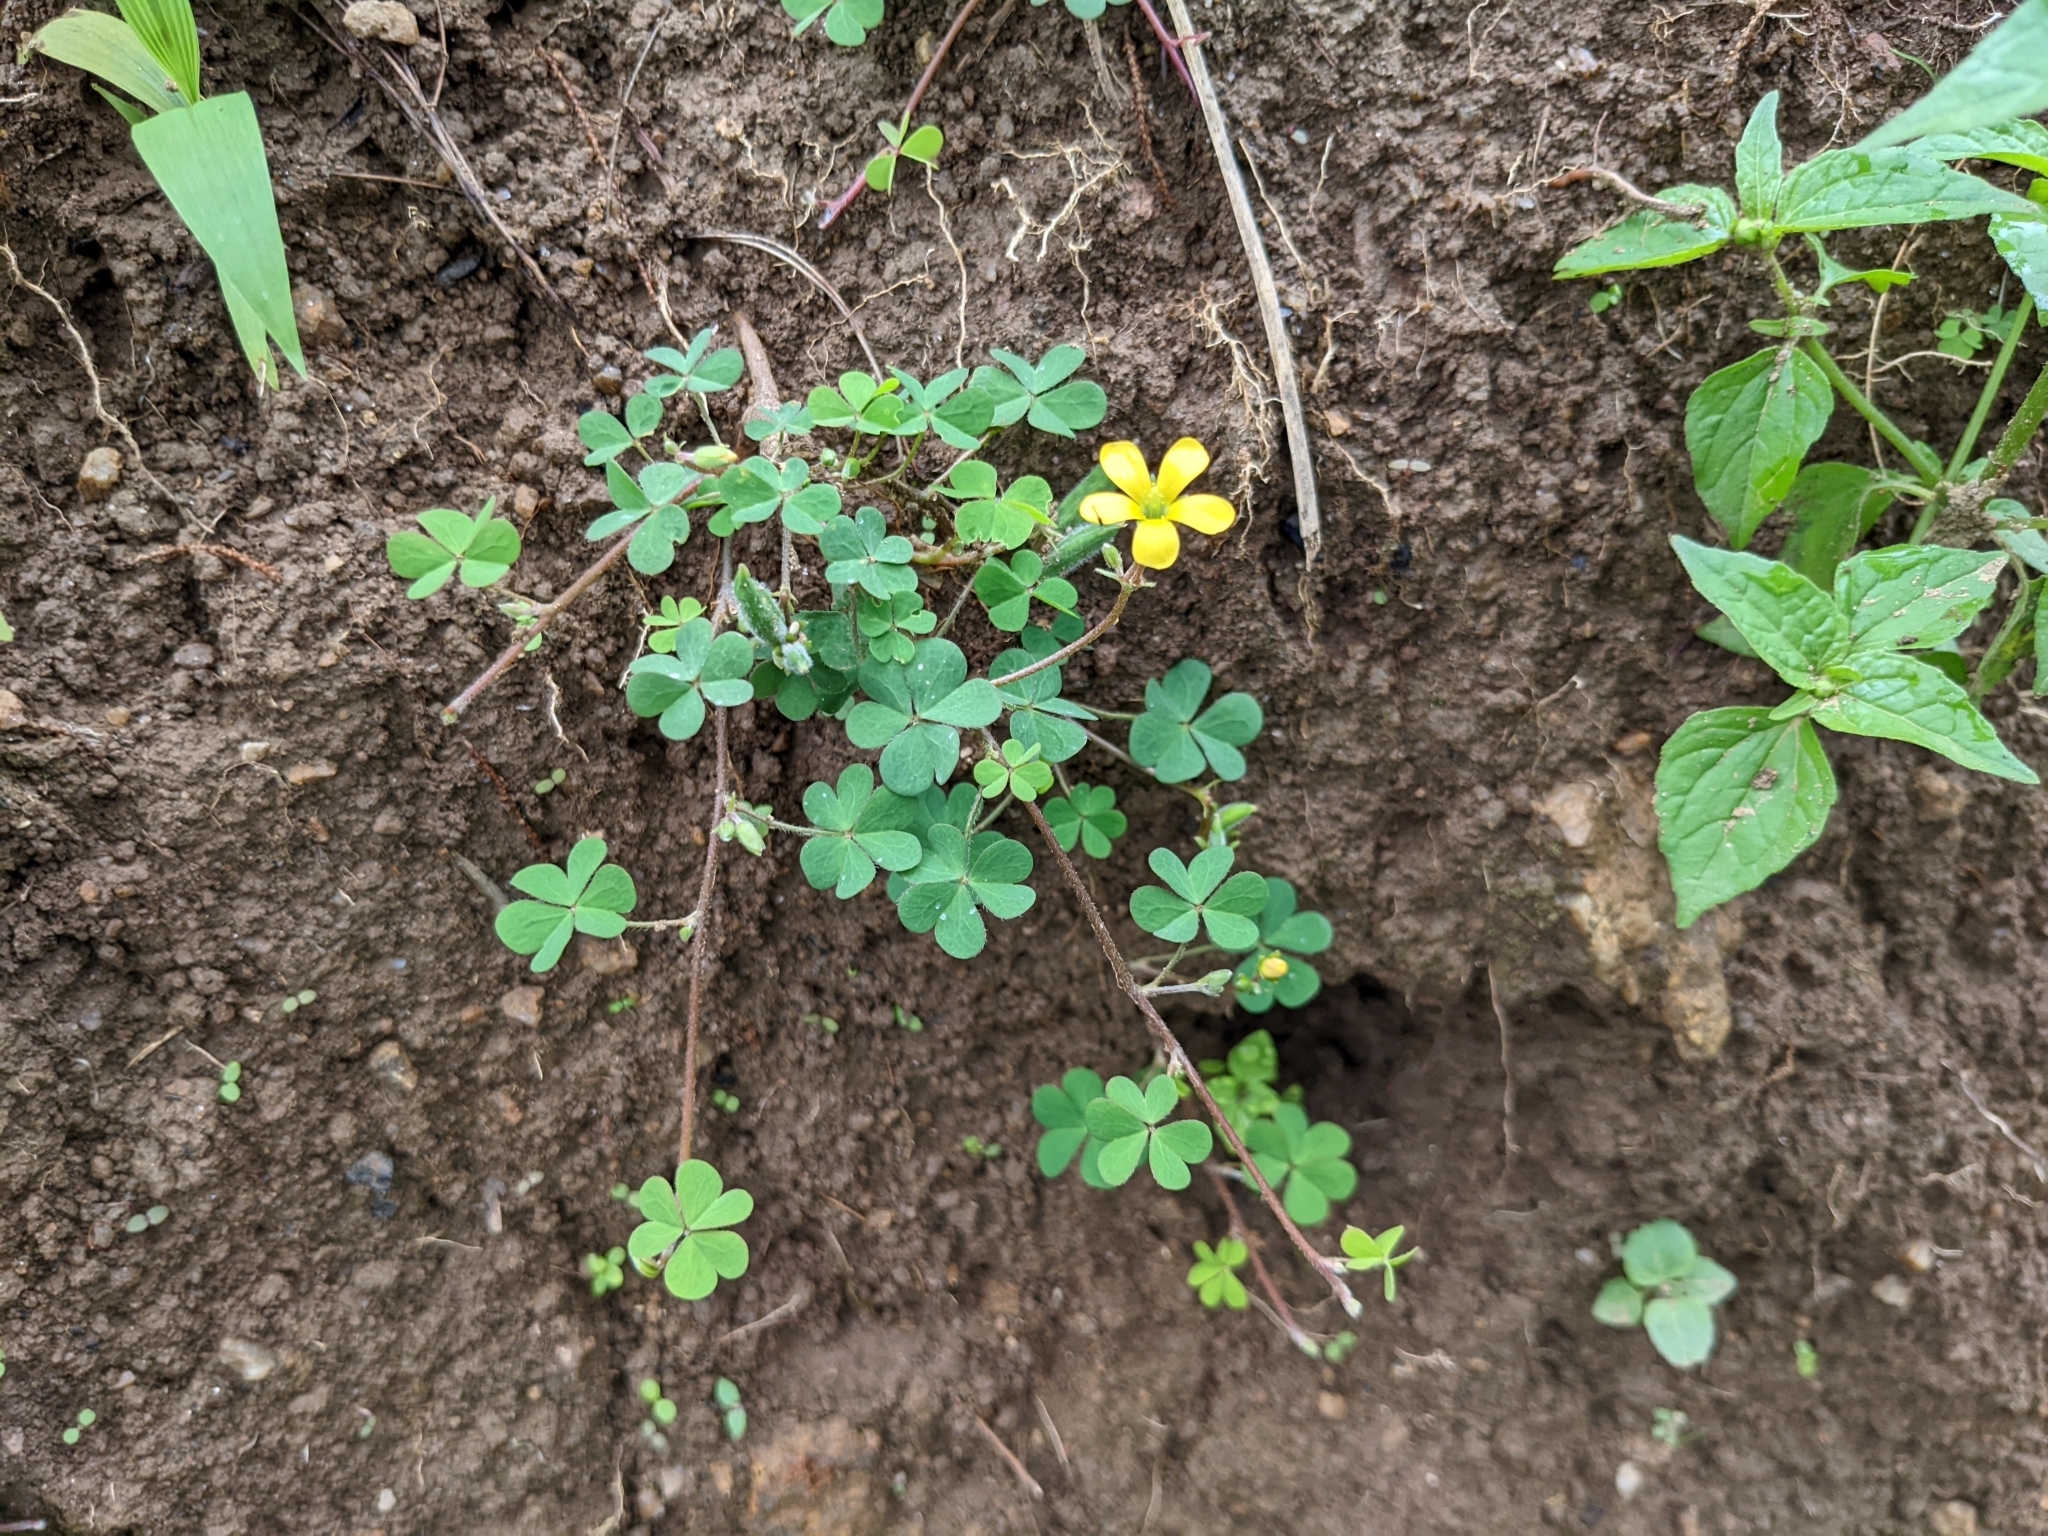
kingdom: Plantae
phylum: Tracheophyta
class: Magnoliopsida
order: Oxalidales
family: Oxalidaceae
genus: Oxalis
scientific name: Oxalis corniculata
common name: Procumbent yellow-sorrel
